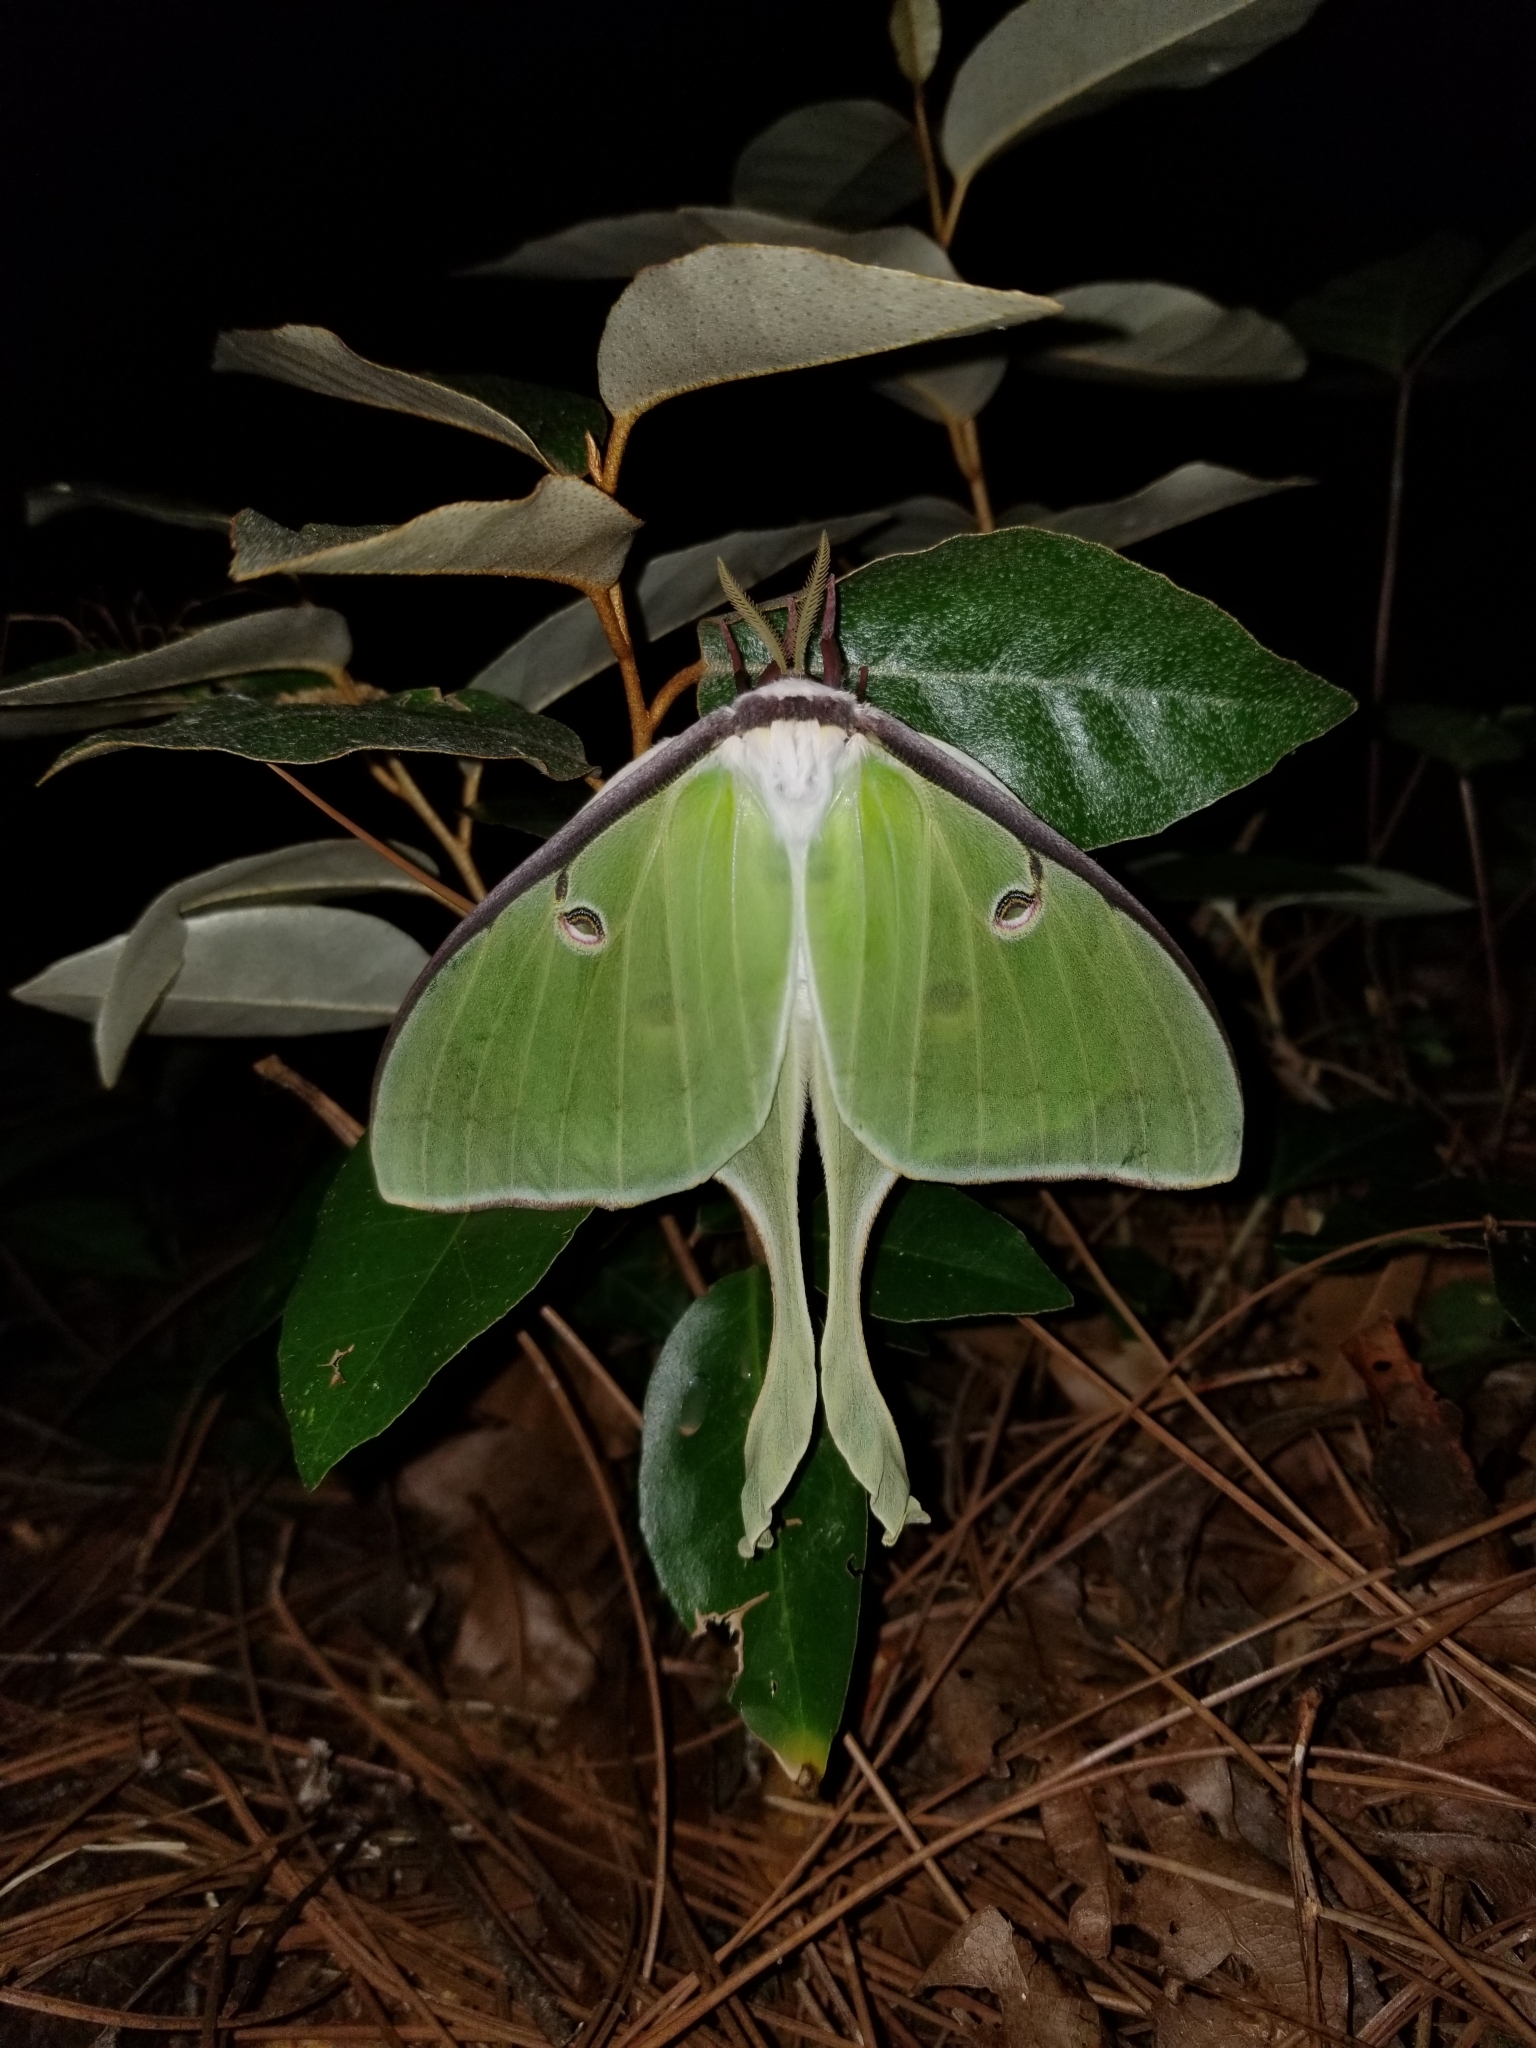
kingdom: Animalia
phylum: Arthropoda
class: Insecta
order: Lepidoptera
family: Saturniidae
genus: Actias
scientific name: Actias luna
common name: Luna moth
